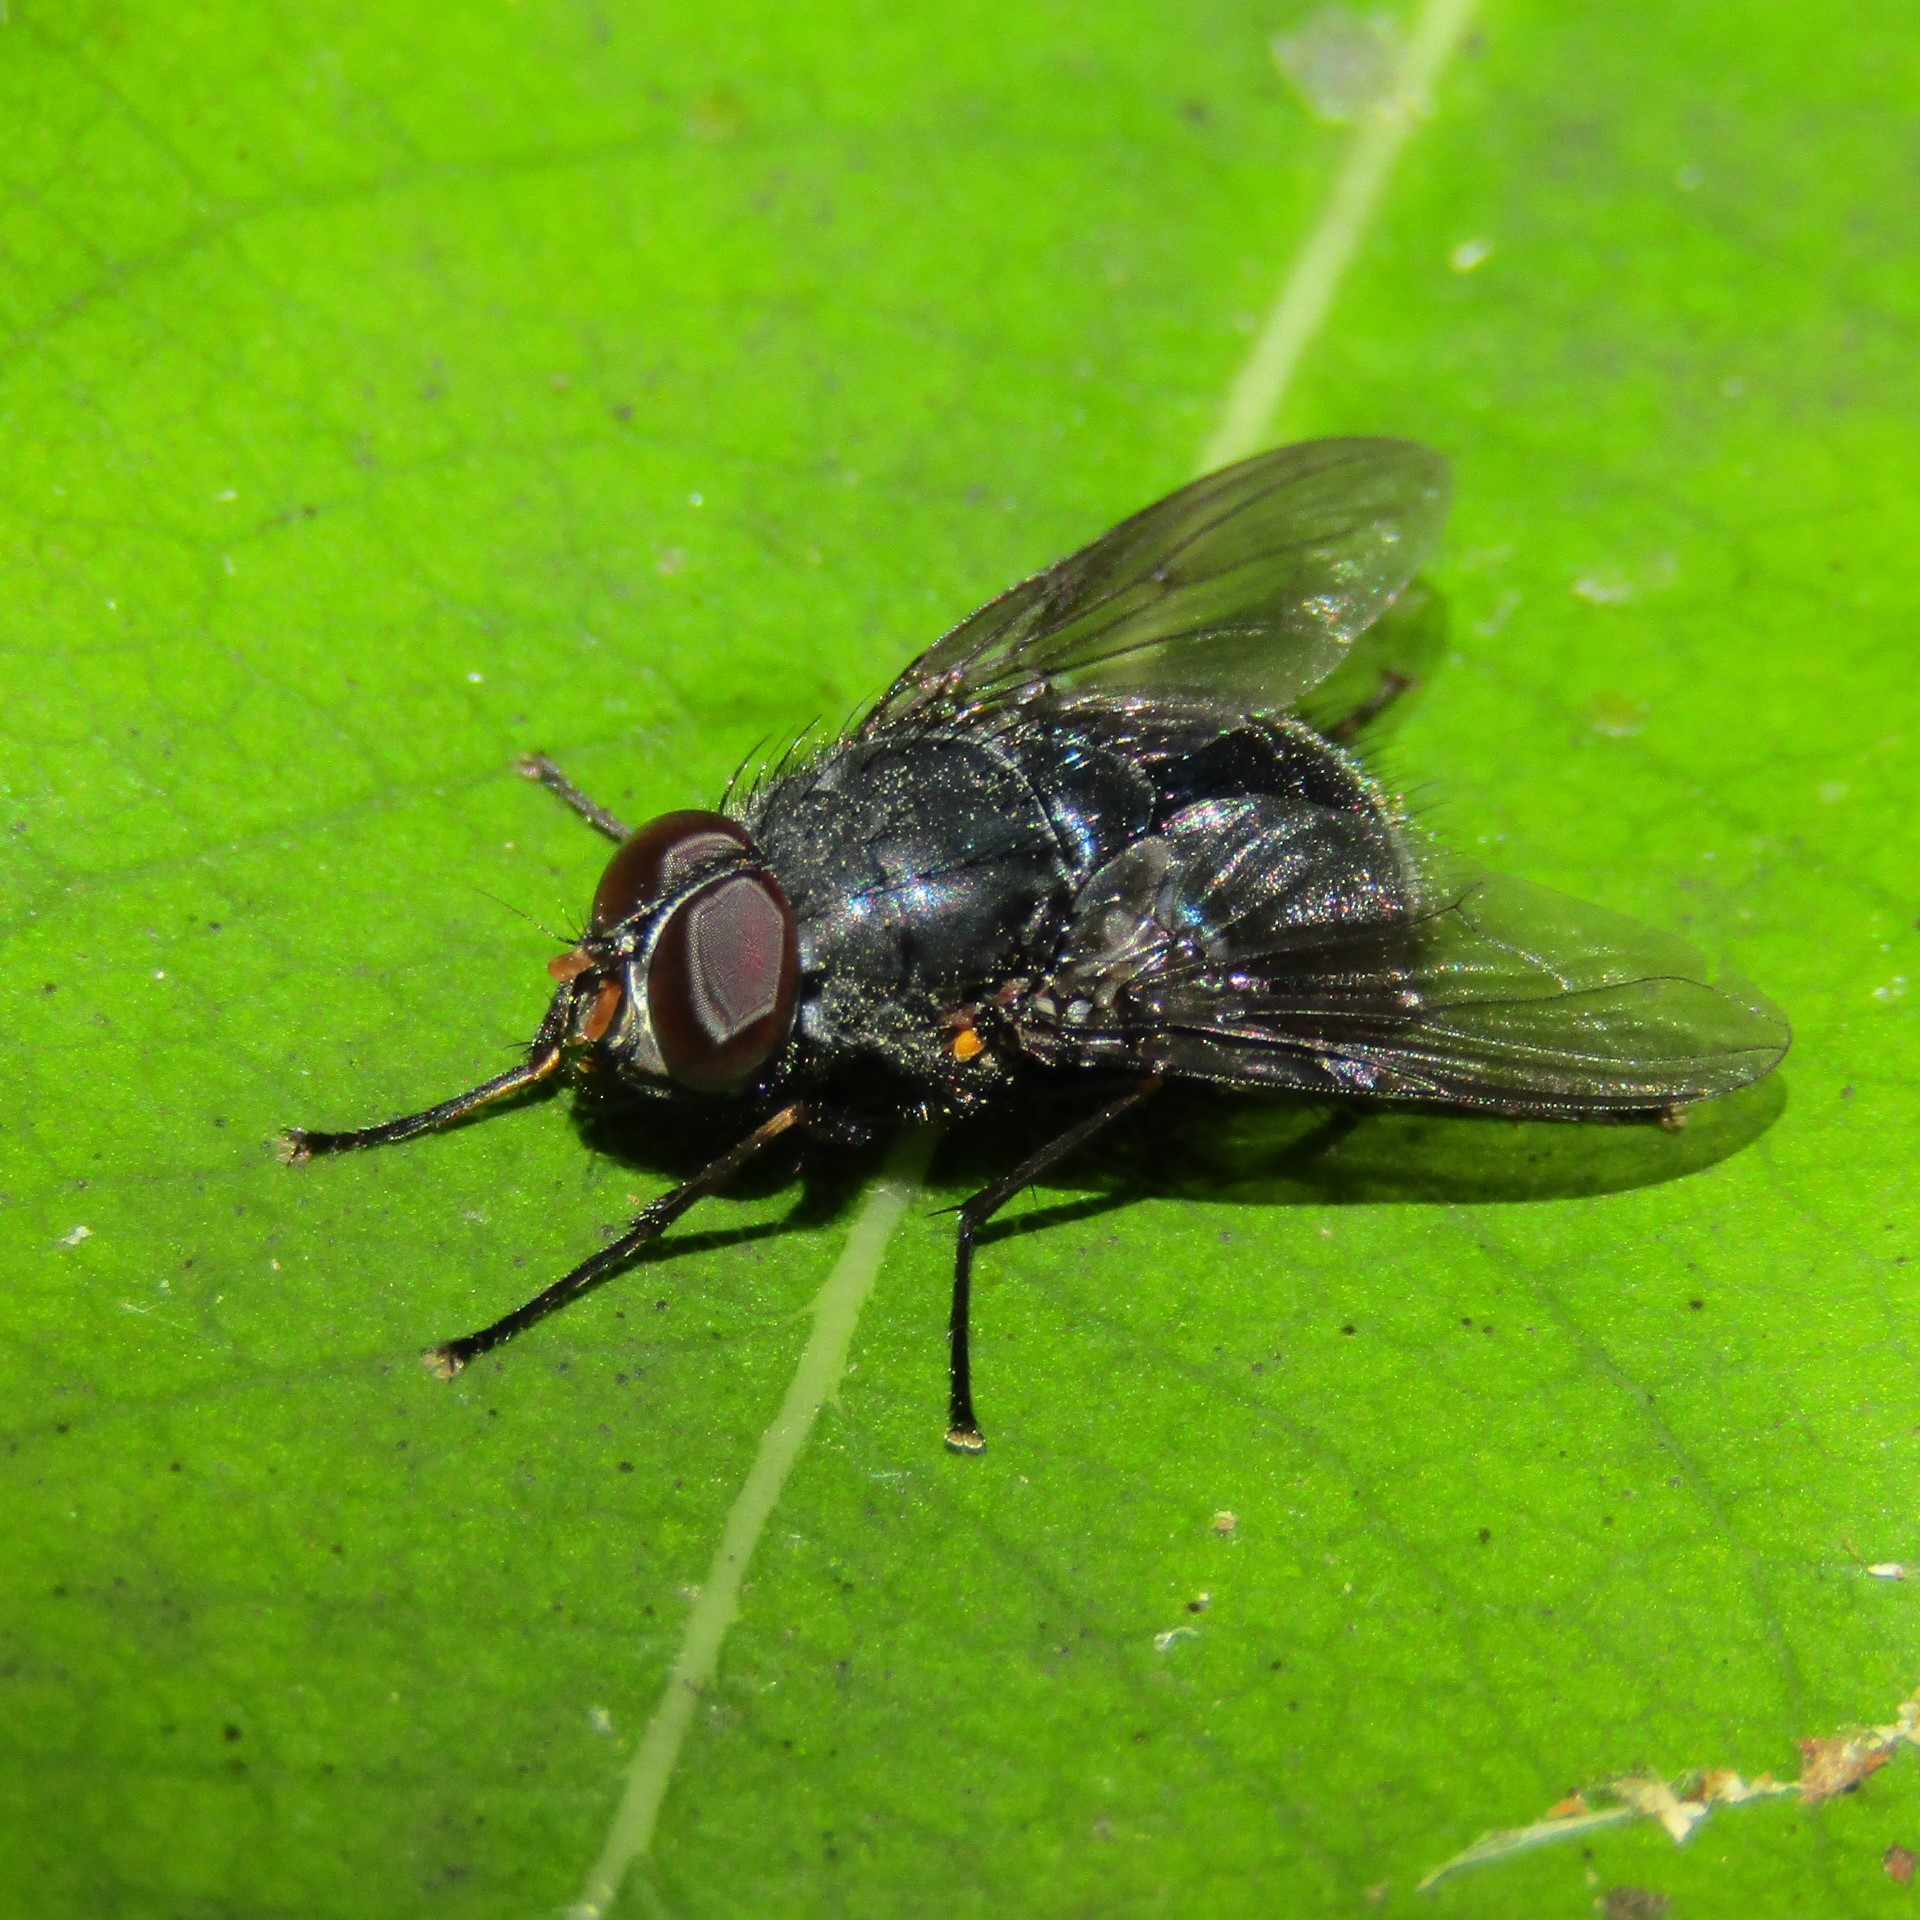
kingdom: Animalia
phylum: Arthropoda
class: Insecta
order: Diptera
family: Muscidae
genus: Calliphoroides
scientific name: Calliphoroides antennatis
